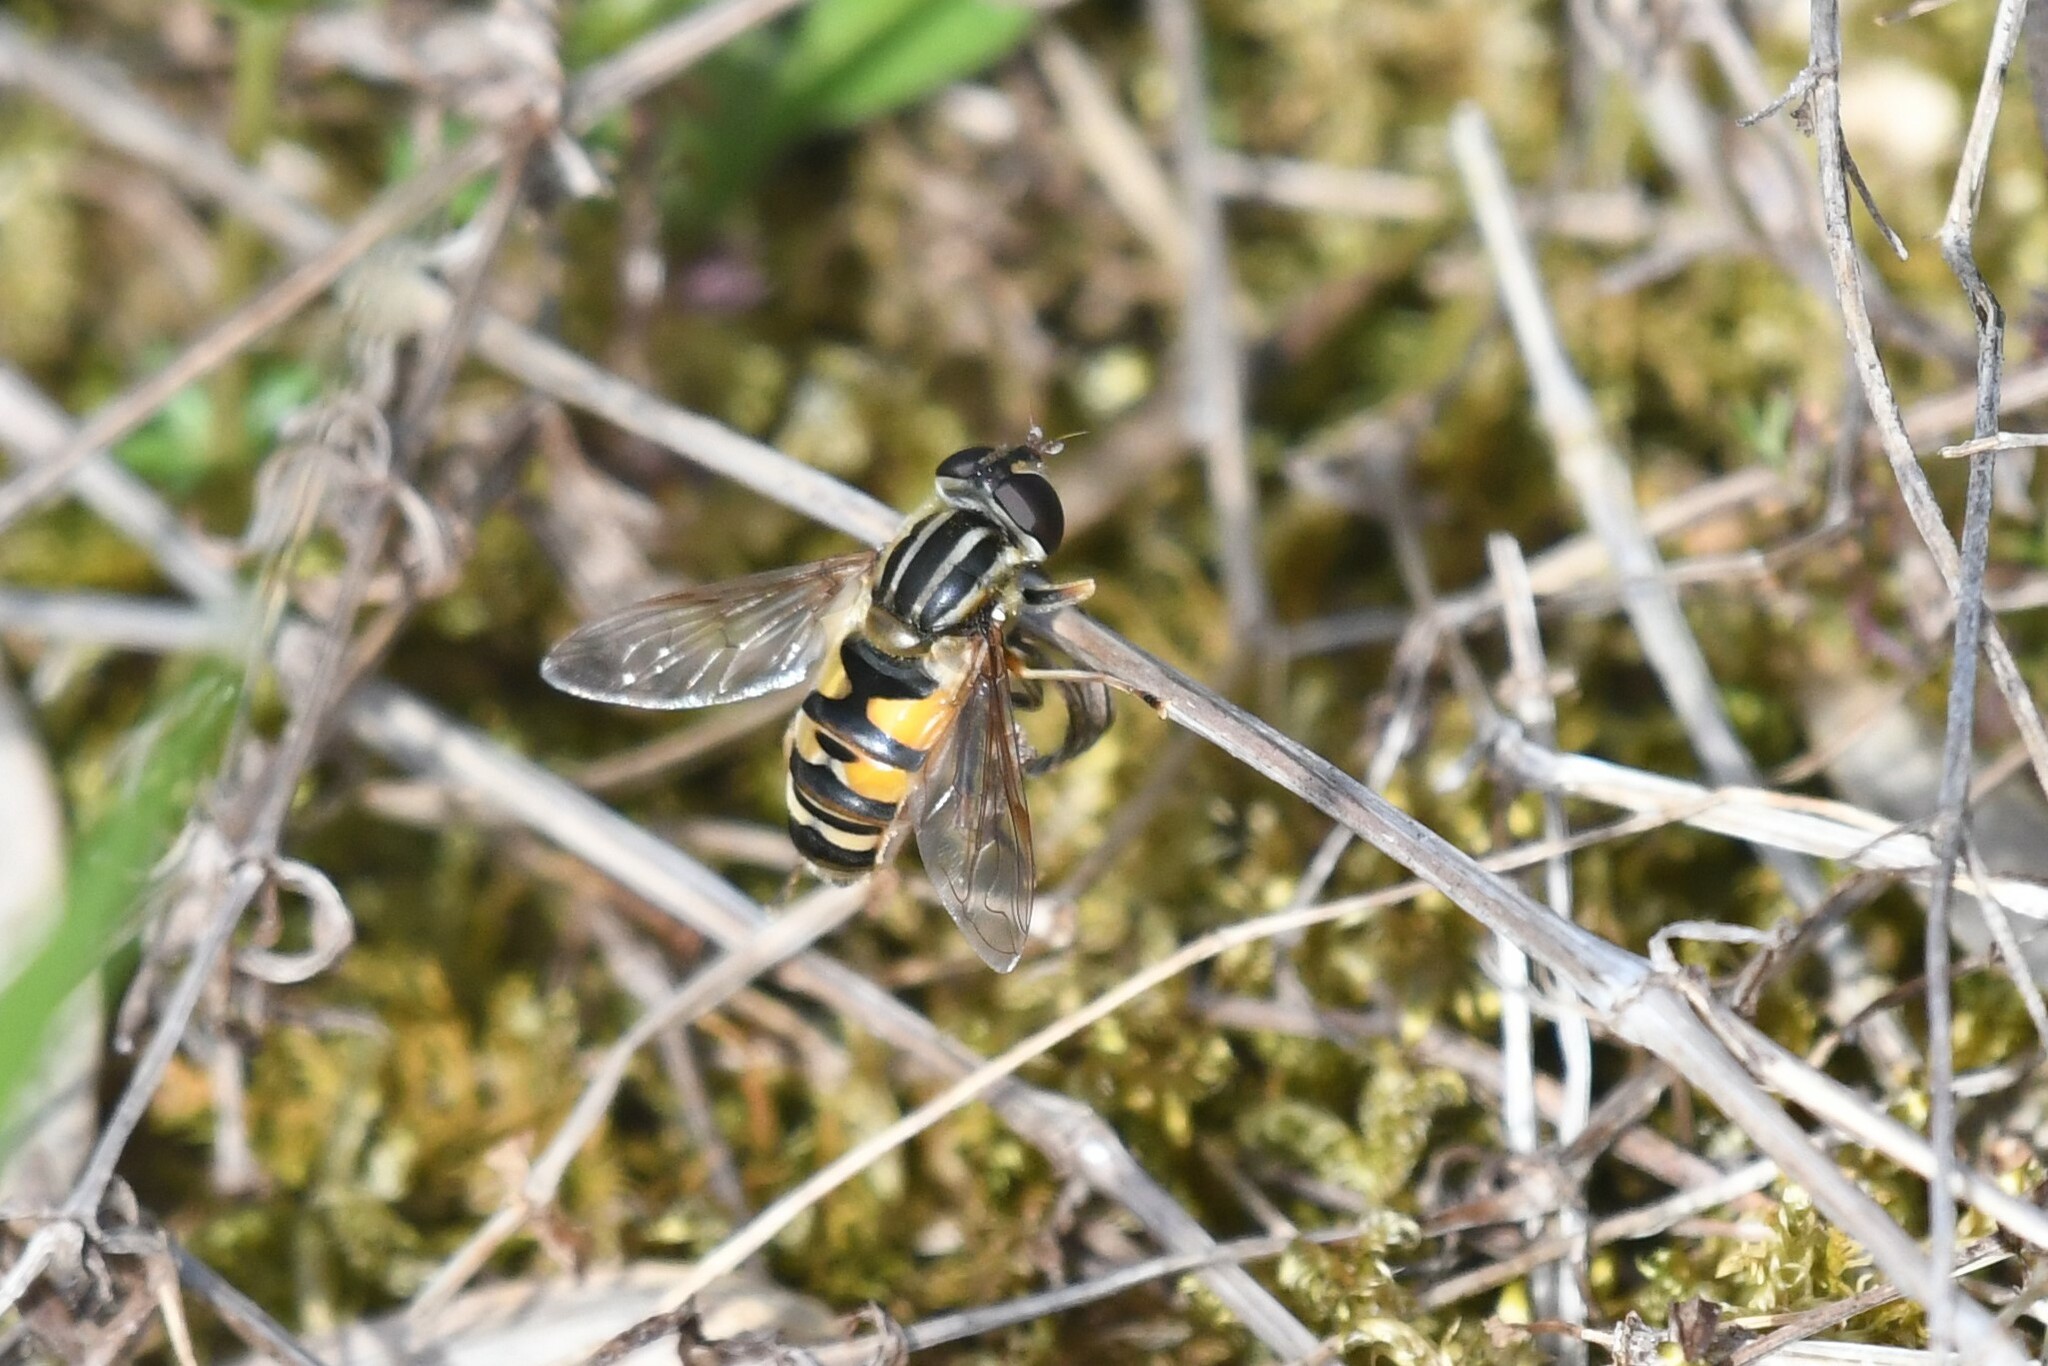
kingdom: Animalia
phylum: Arthropoda
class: Insecta
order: Diptera
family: Syrphidae
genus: Helophilus
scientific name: Helophilus fasciatus
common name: Narrow-headed marsh fly
